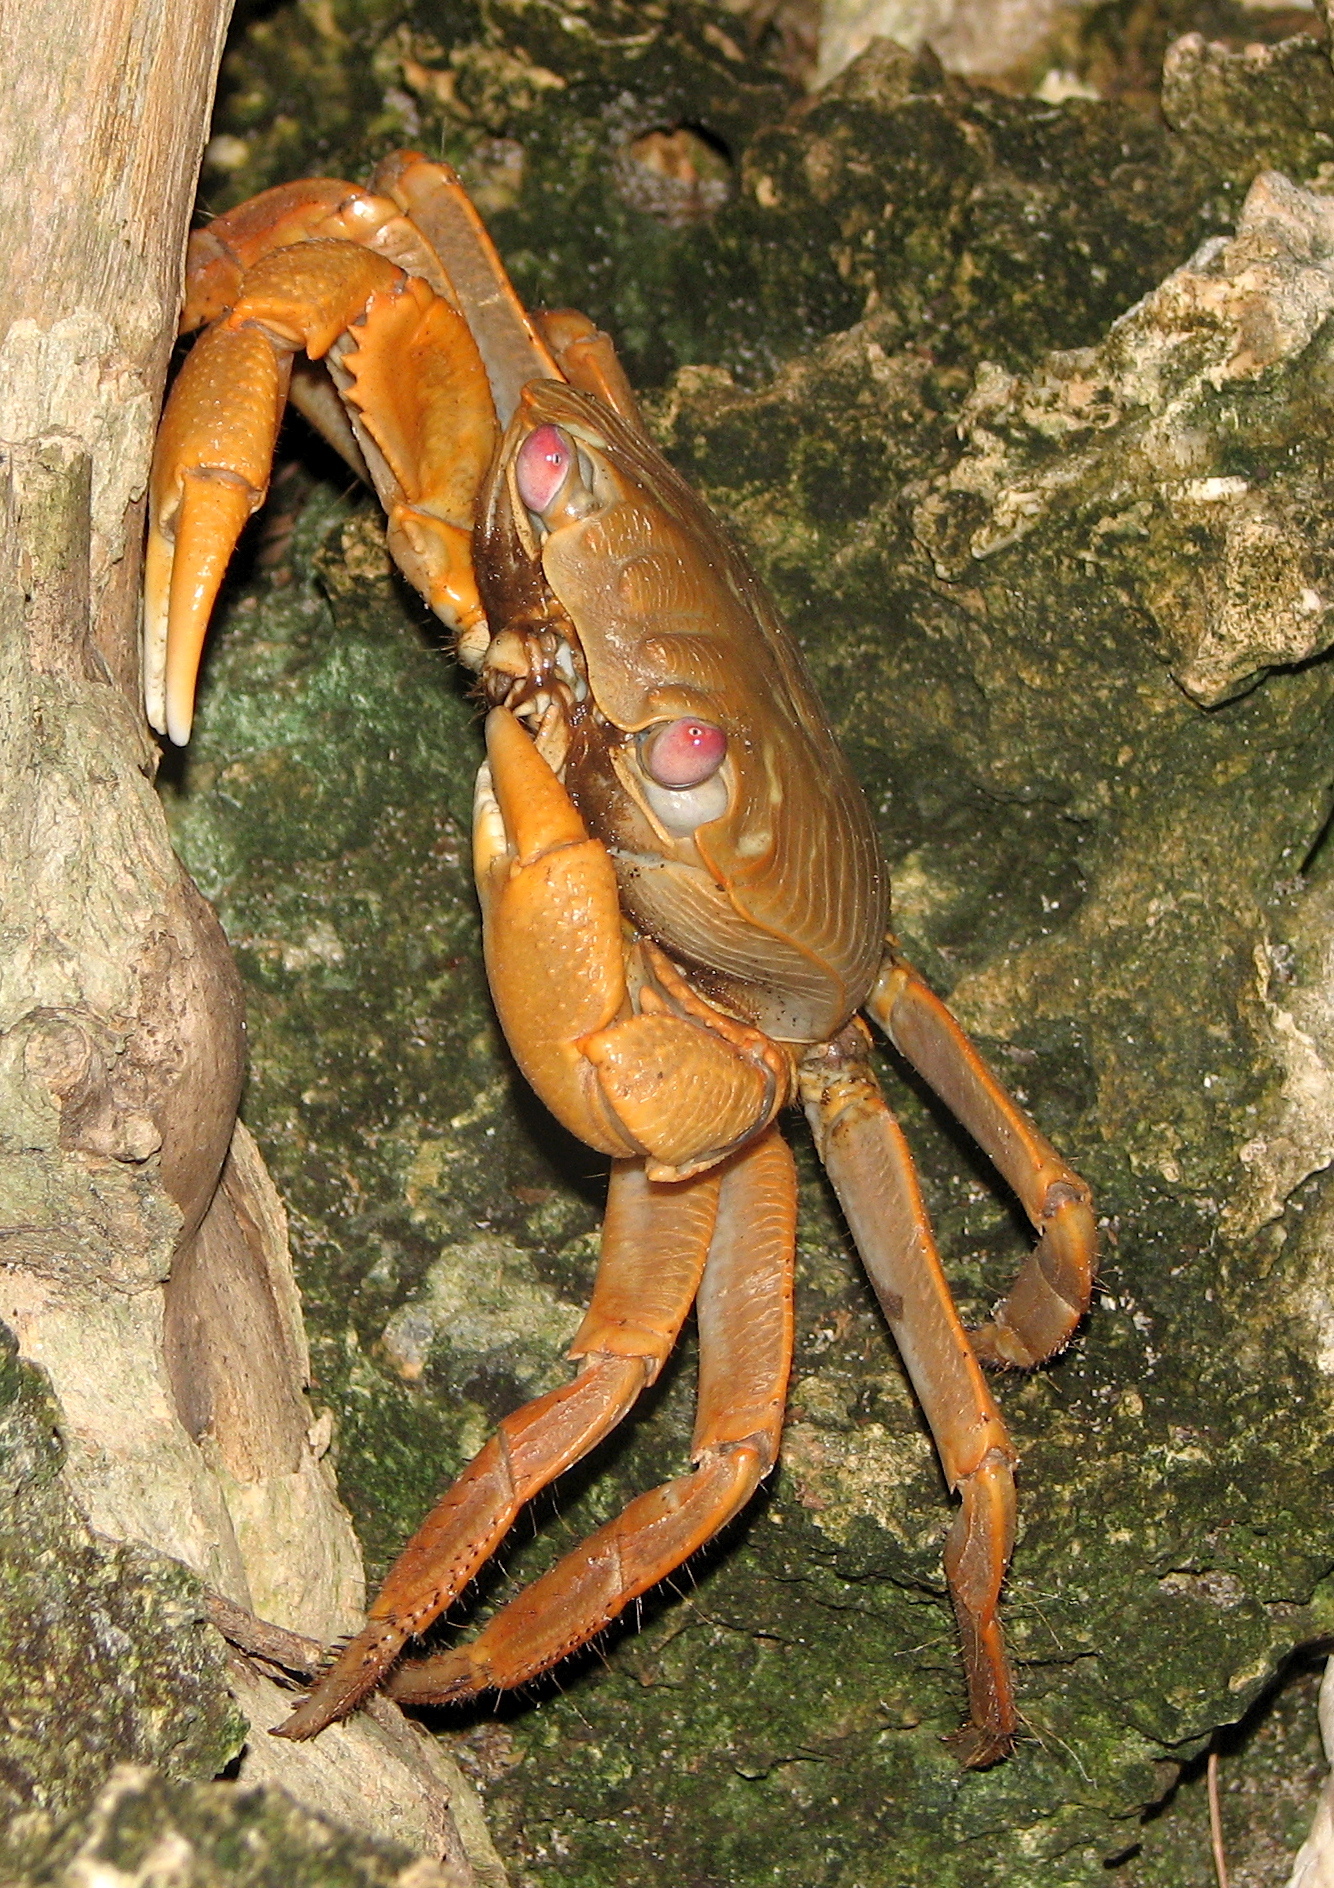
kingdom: Animalia
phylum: Arthropoda
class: Malacostraca
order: Decapoda
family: Grapsidae
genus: Geograpsus
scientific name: Geograpsus crinipes
